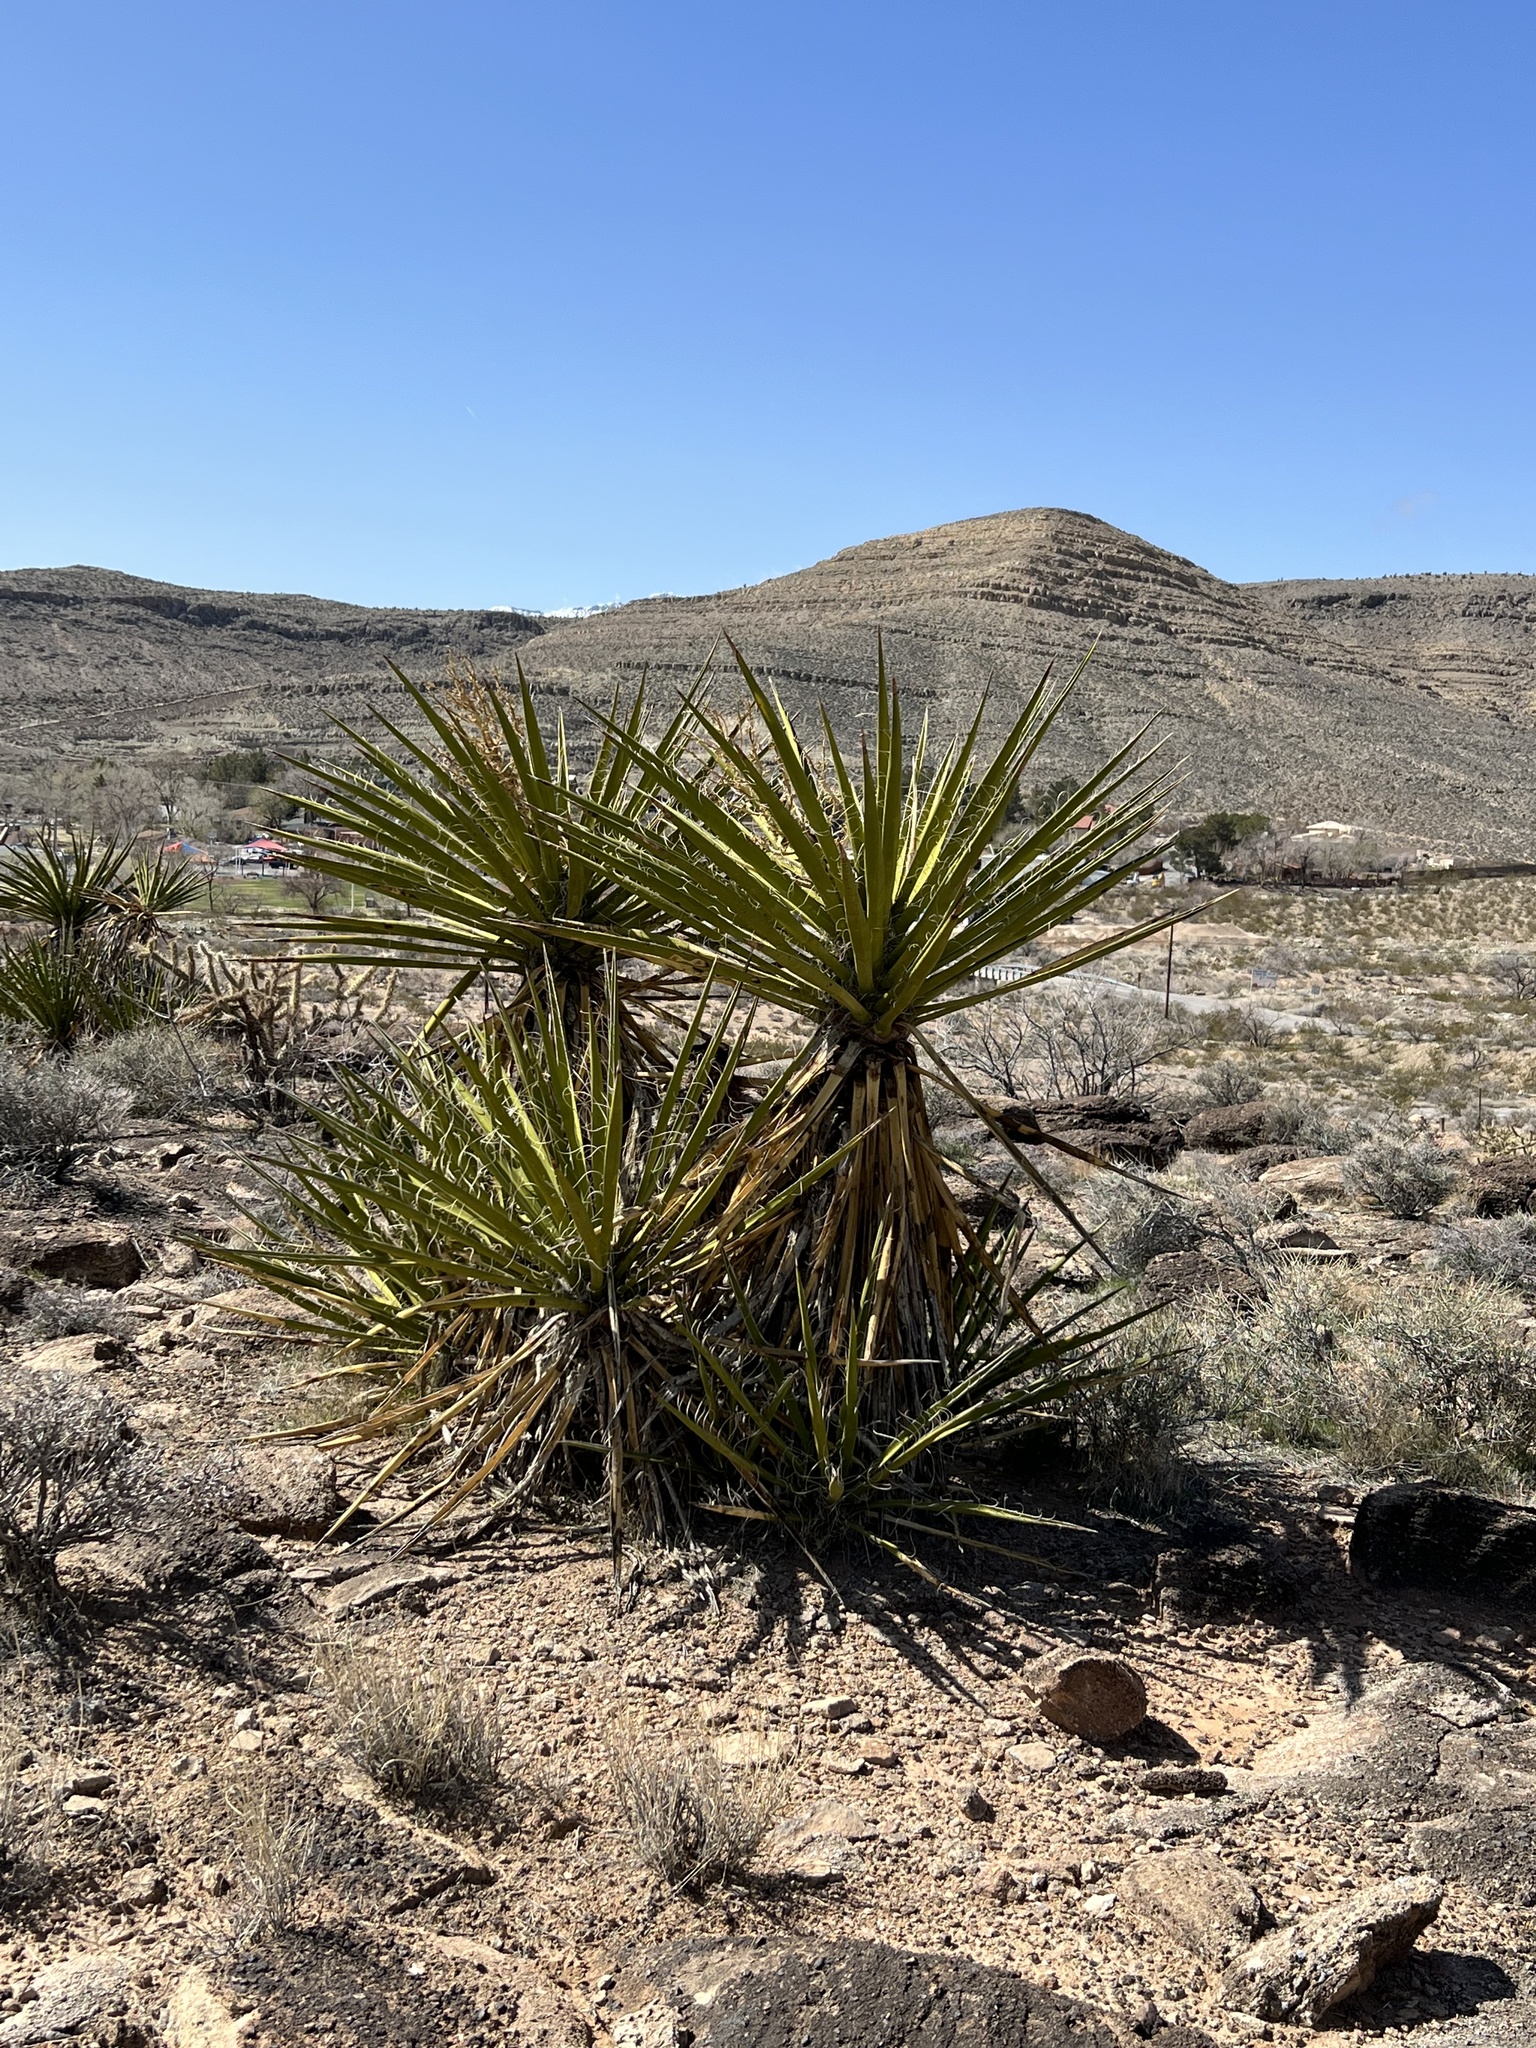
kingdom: Plantae
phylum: Tracheophyta
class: Liliopsida
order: Asparagales
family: Asparagaceae
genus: Yucca
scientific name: Yucca schidigera
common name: Mojave yucca
